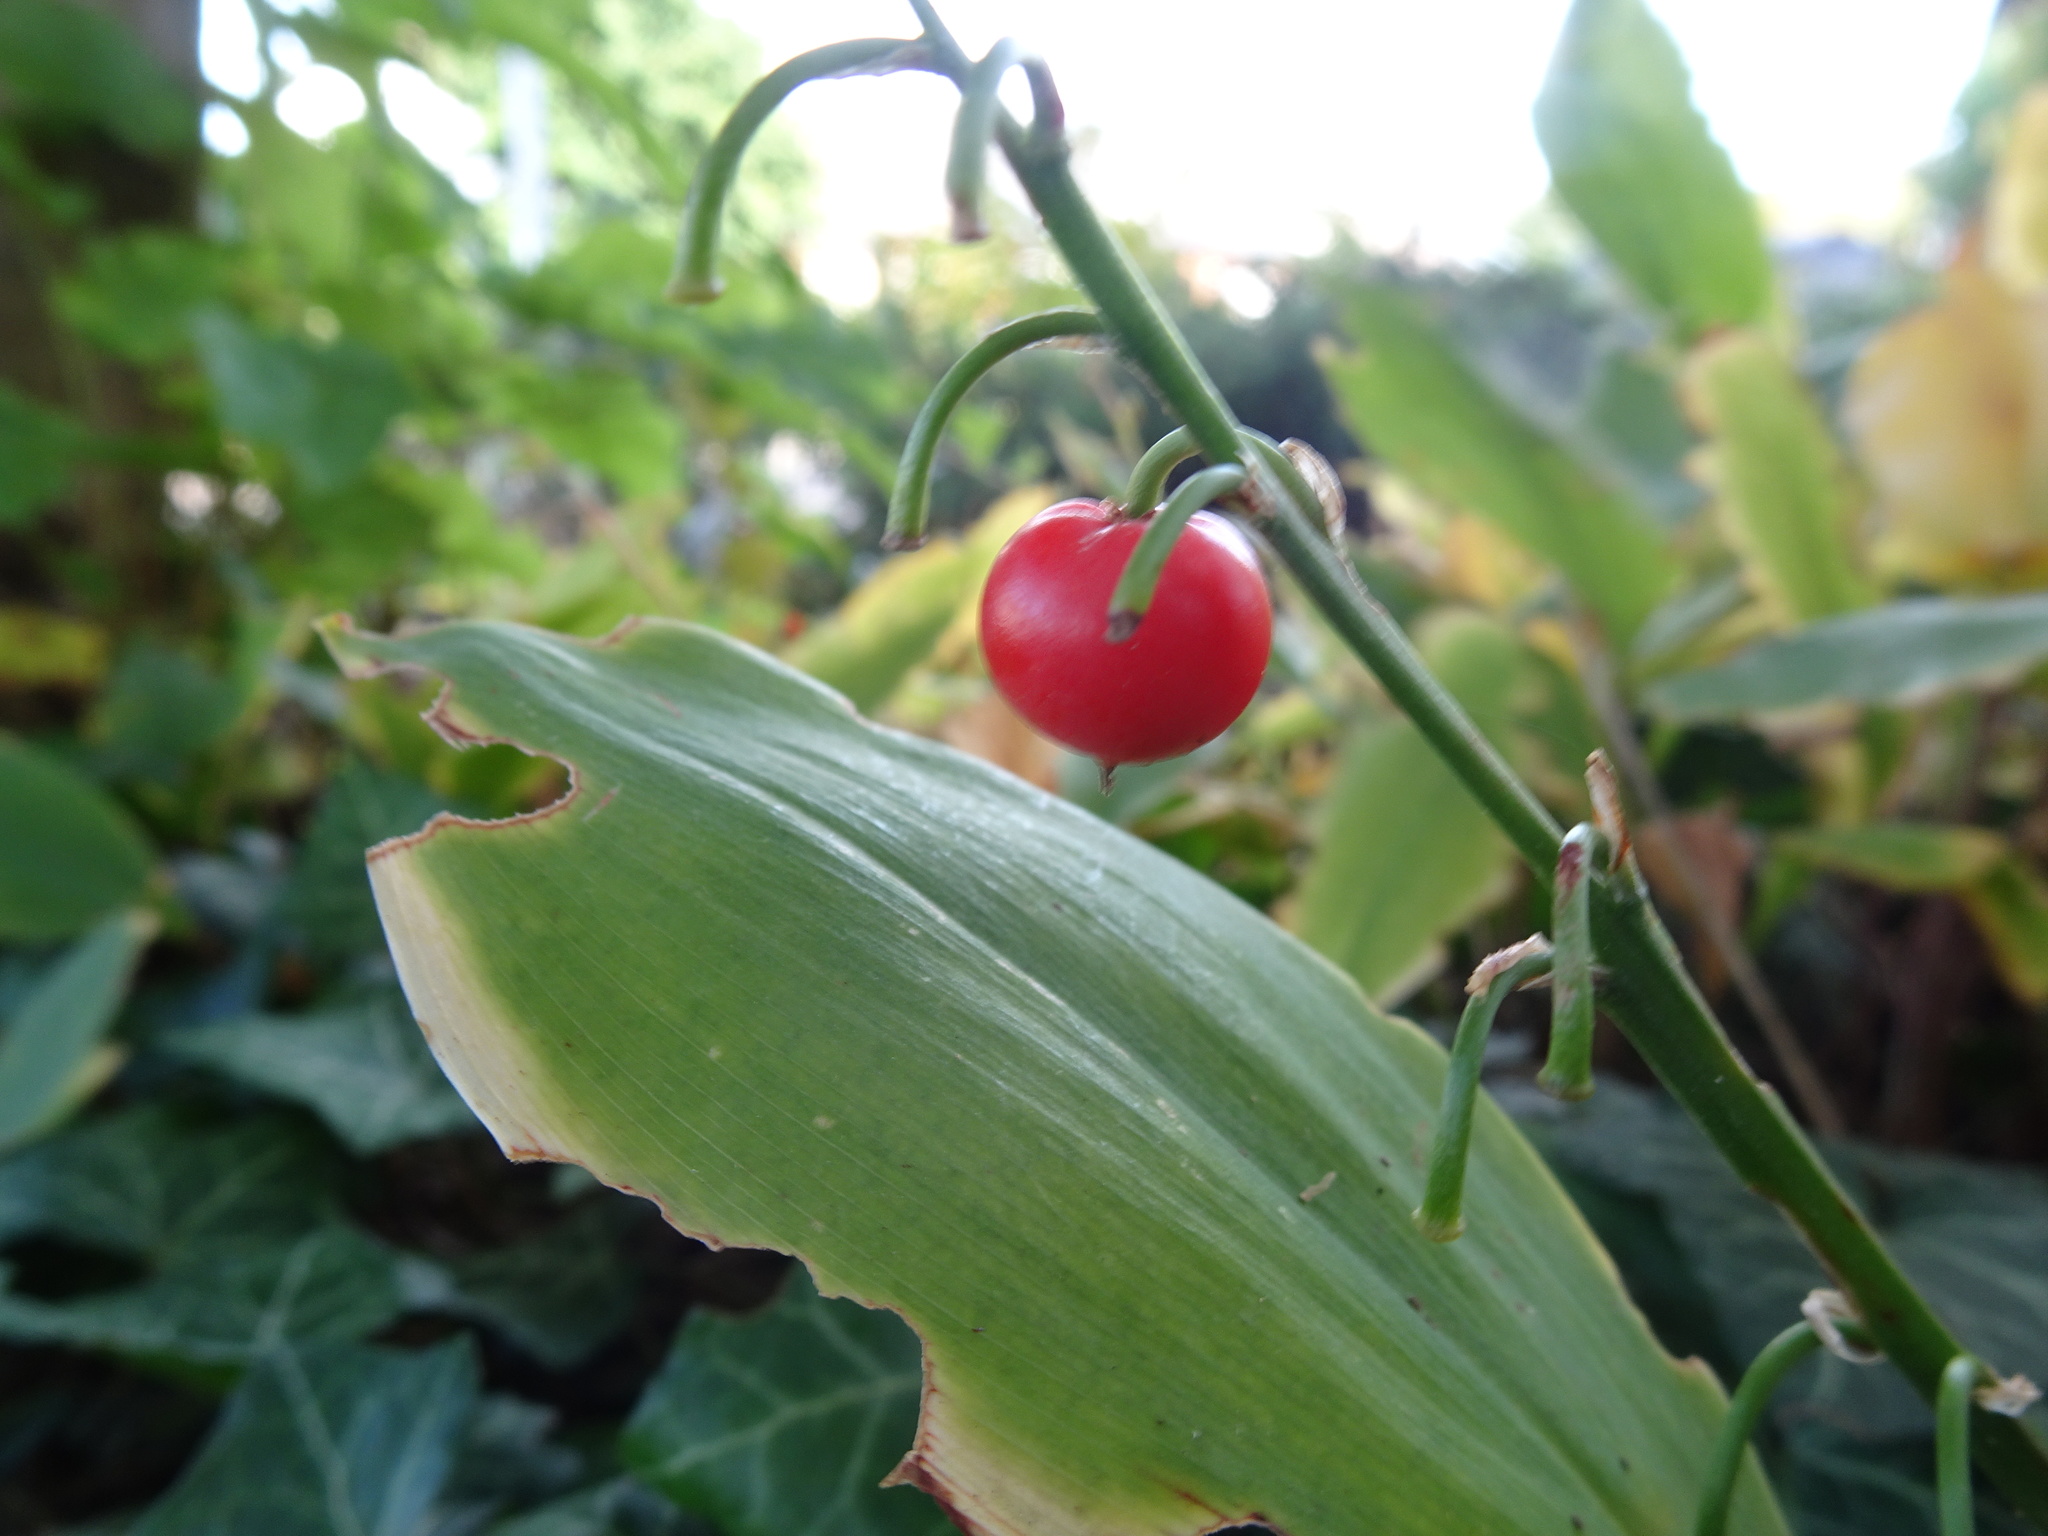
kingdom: Plantae
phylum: Tracheophyta
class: Liliopsida
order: Asparagales
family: Asparagaceae
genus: Convallaria
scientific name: Convallaria majalis
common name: Lily-of-the-valley
